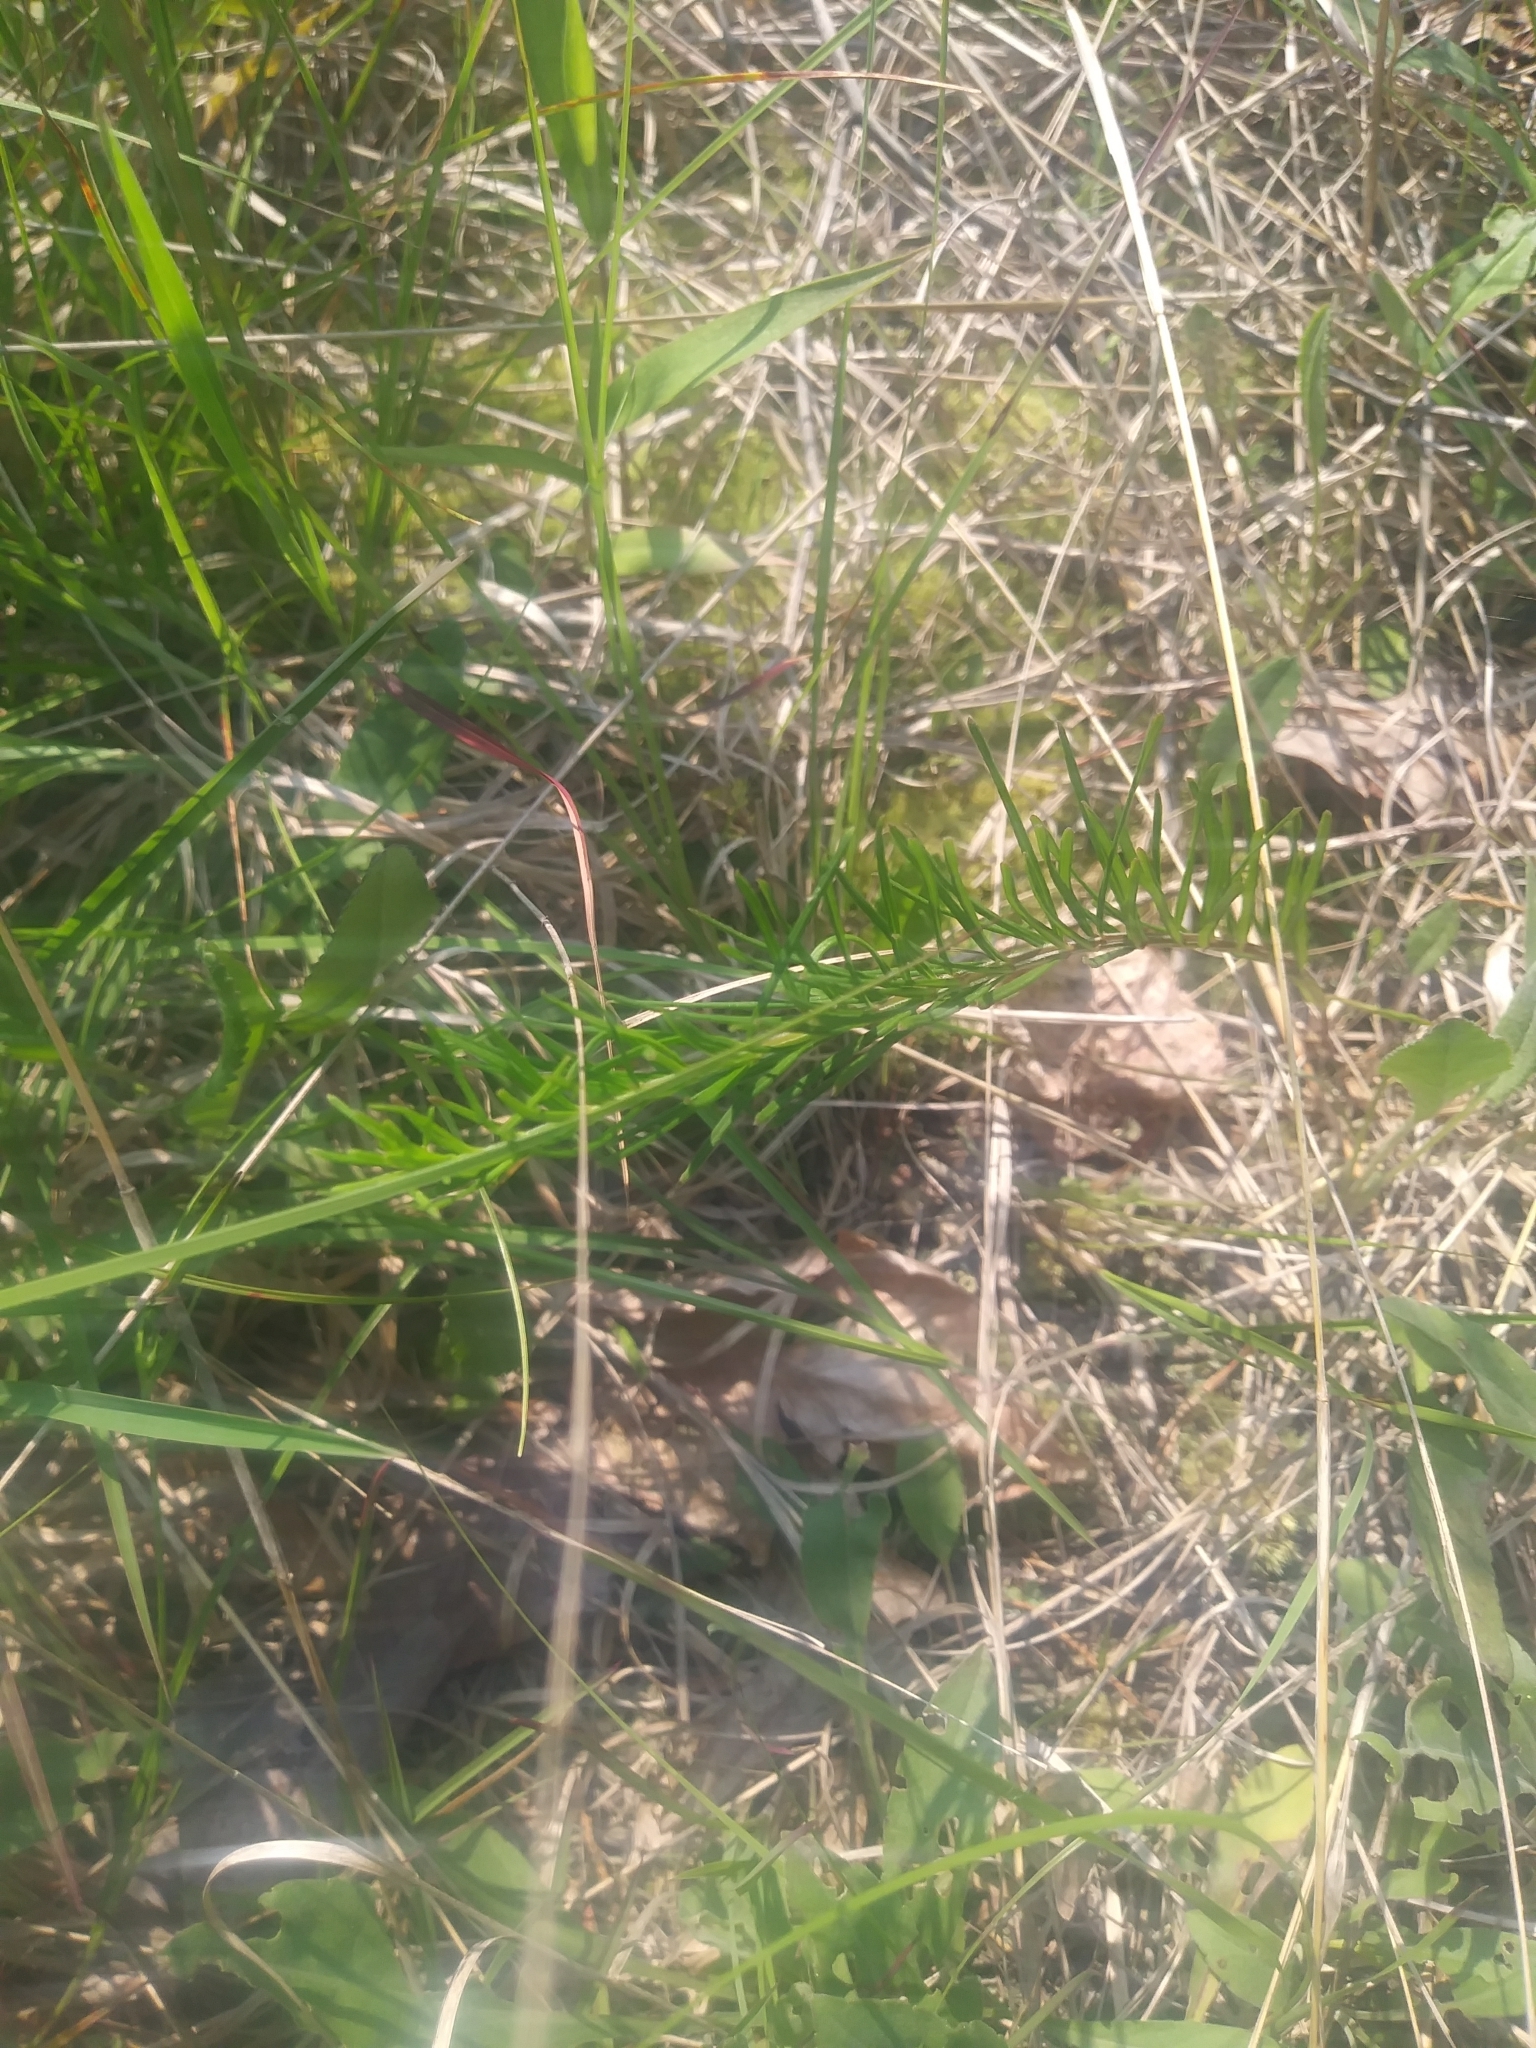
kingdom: Plantae
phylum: Tracheophyta
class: Magnoliopsida
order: Gentianales
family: Apocynaceae
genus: Asclepias
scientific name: Asclepias verticillata
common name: Eastern whorled milkweed
